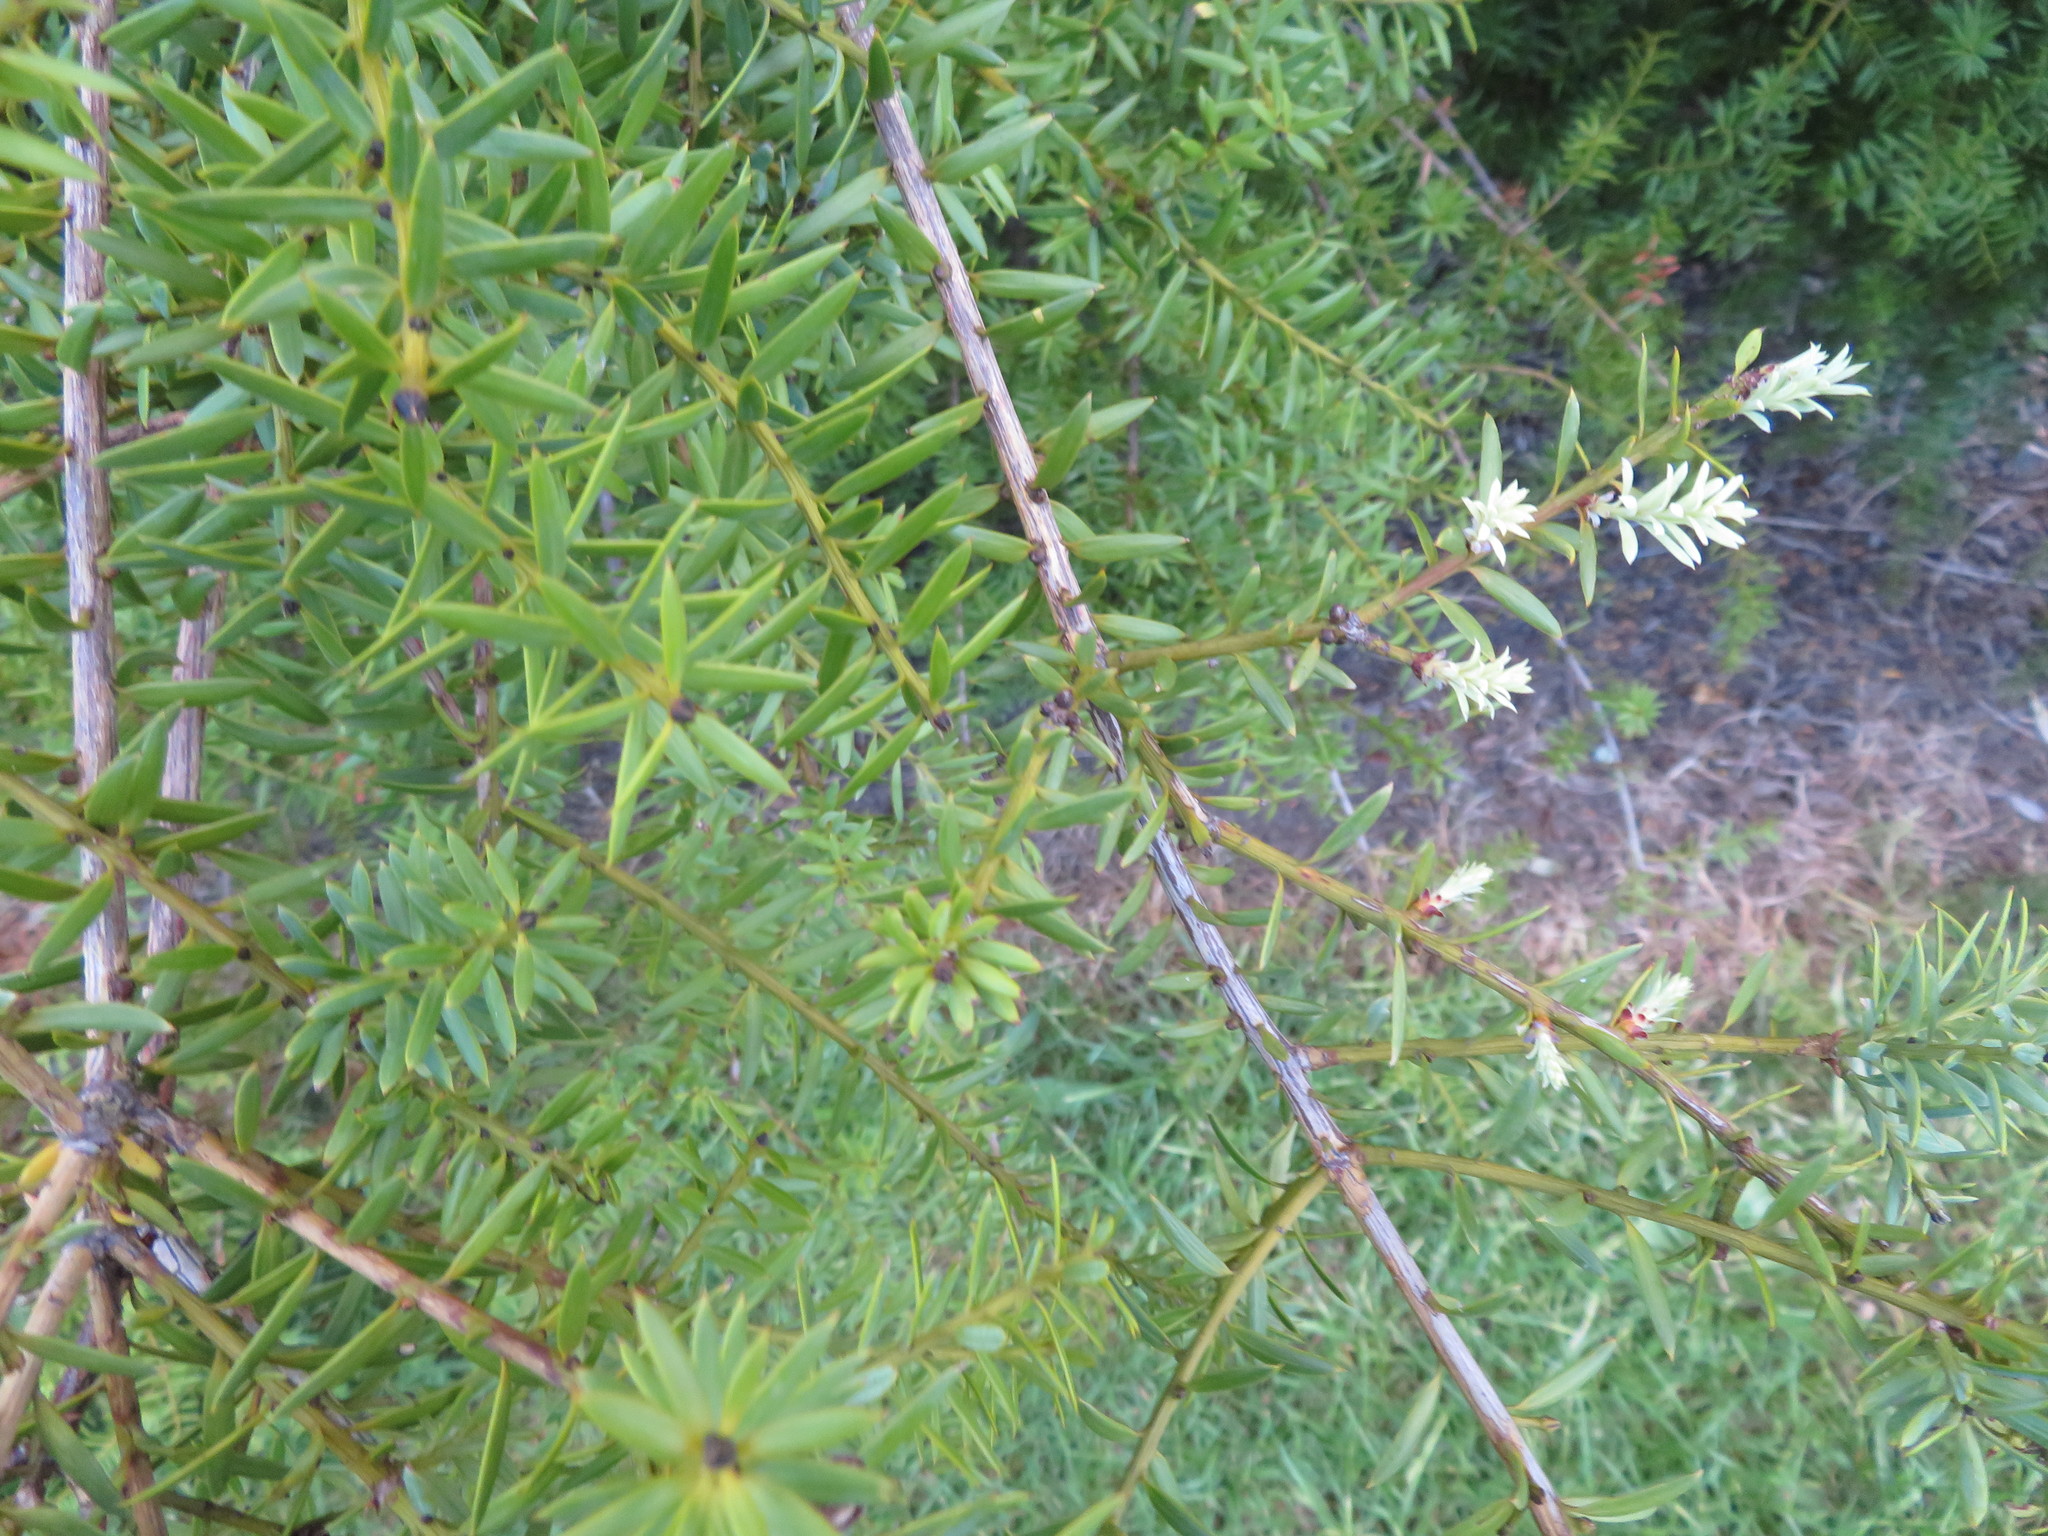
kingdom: Plantae
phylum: Tracheophyta
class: Pinopsida
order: Pinales
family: Podocarpaceae
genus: Podocarpus
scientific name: Podocarpus totara
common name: Totara
